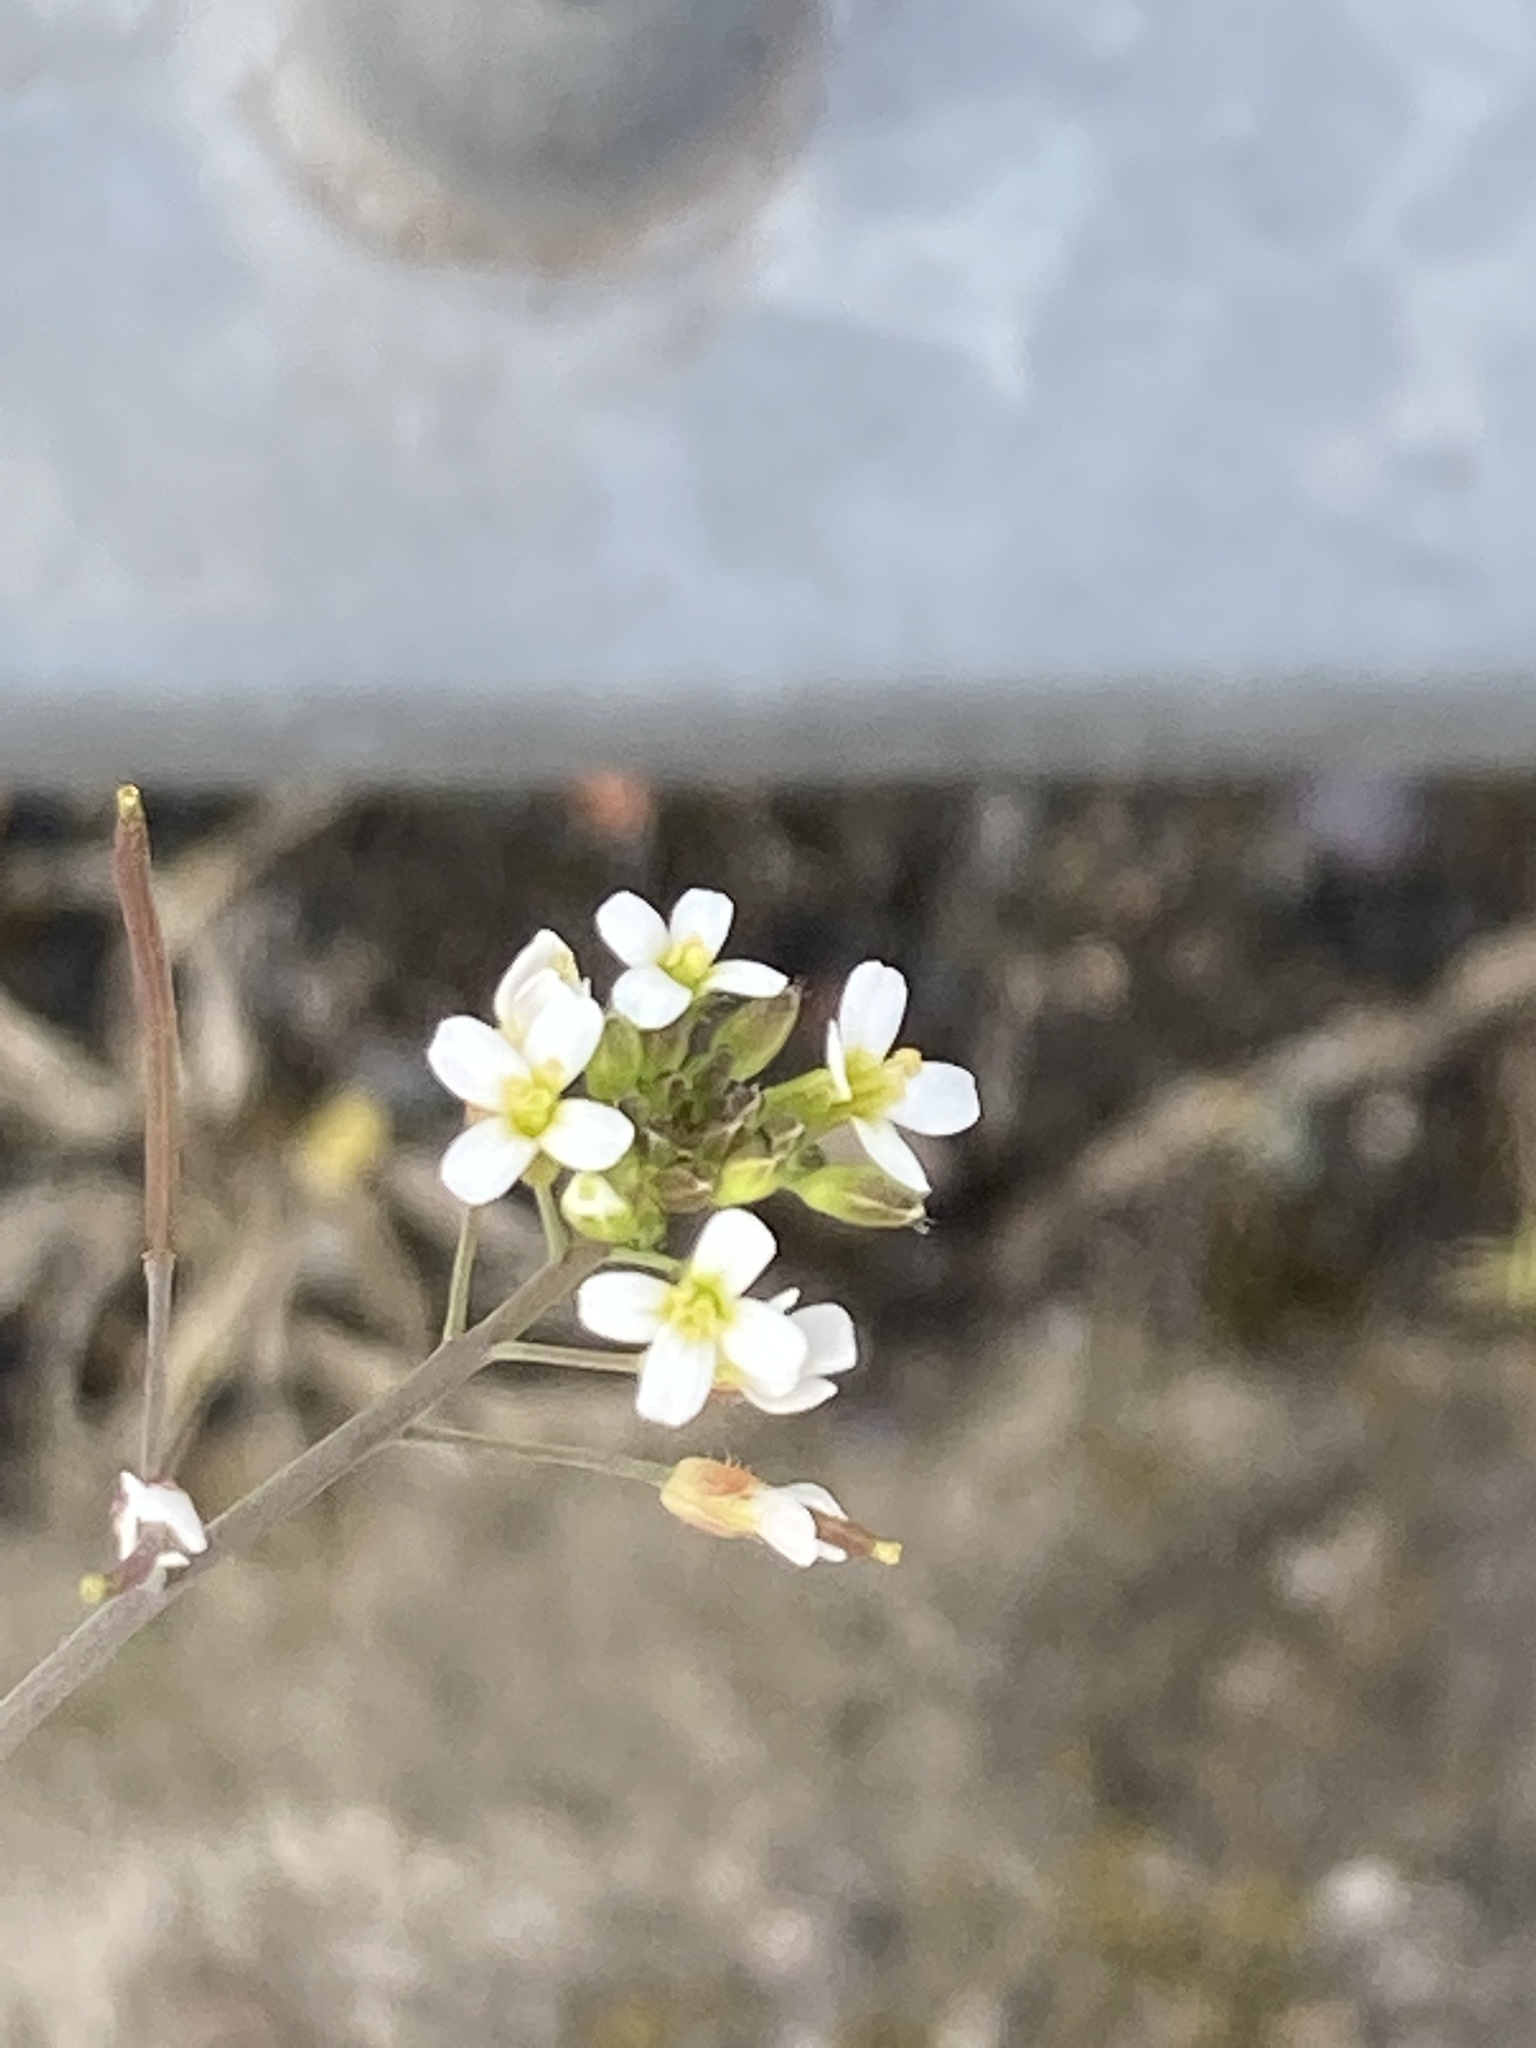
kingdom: Plantae
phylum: Tracheophyta
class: Magnoliopsida
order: Brassicales
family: Brassicaceae
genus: Arabidopsis
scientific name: Arabidopsis thaliana
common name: Thale cress
